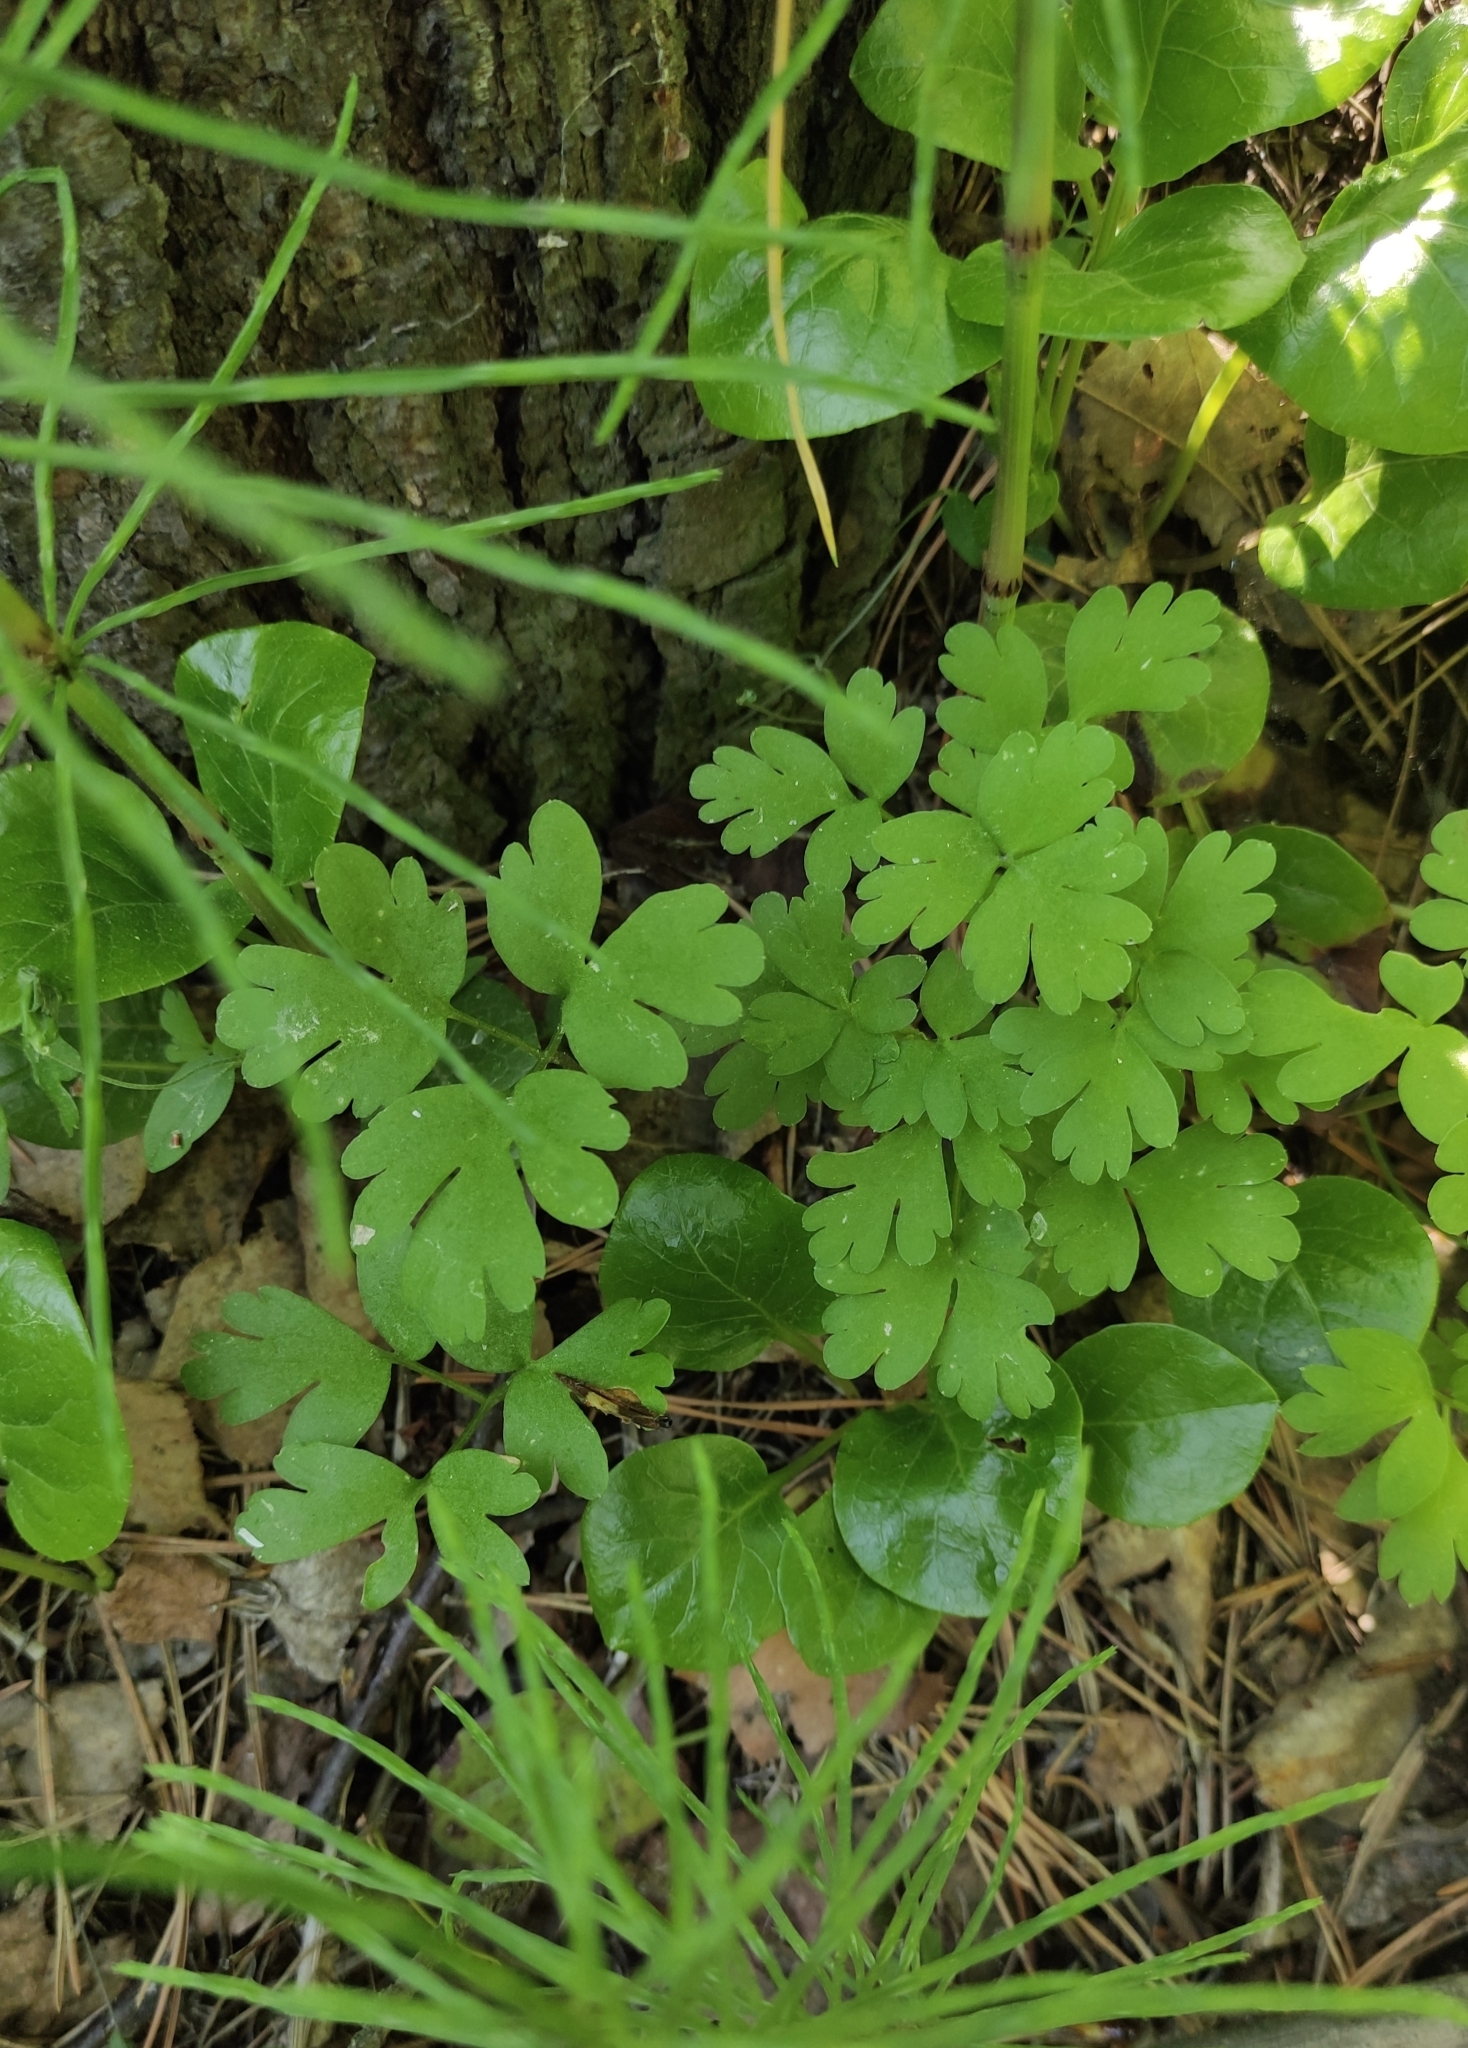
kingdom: Plantae
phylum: Tracheophyta
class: Magnoliopsida
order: Dipsacales
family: Viburnaceae
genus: Adoxa
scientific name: Adoxa moschatellina
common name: Moschatel
